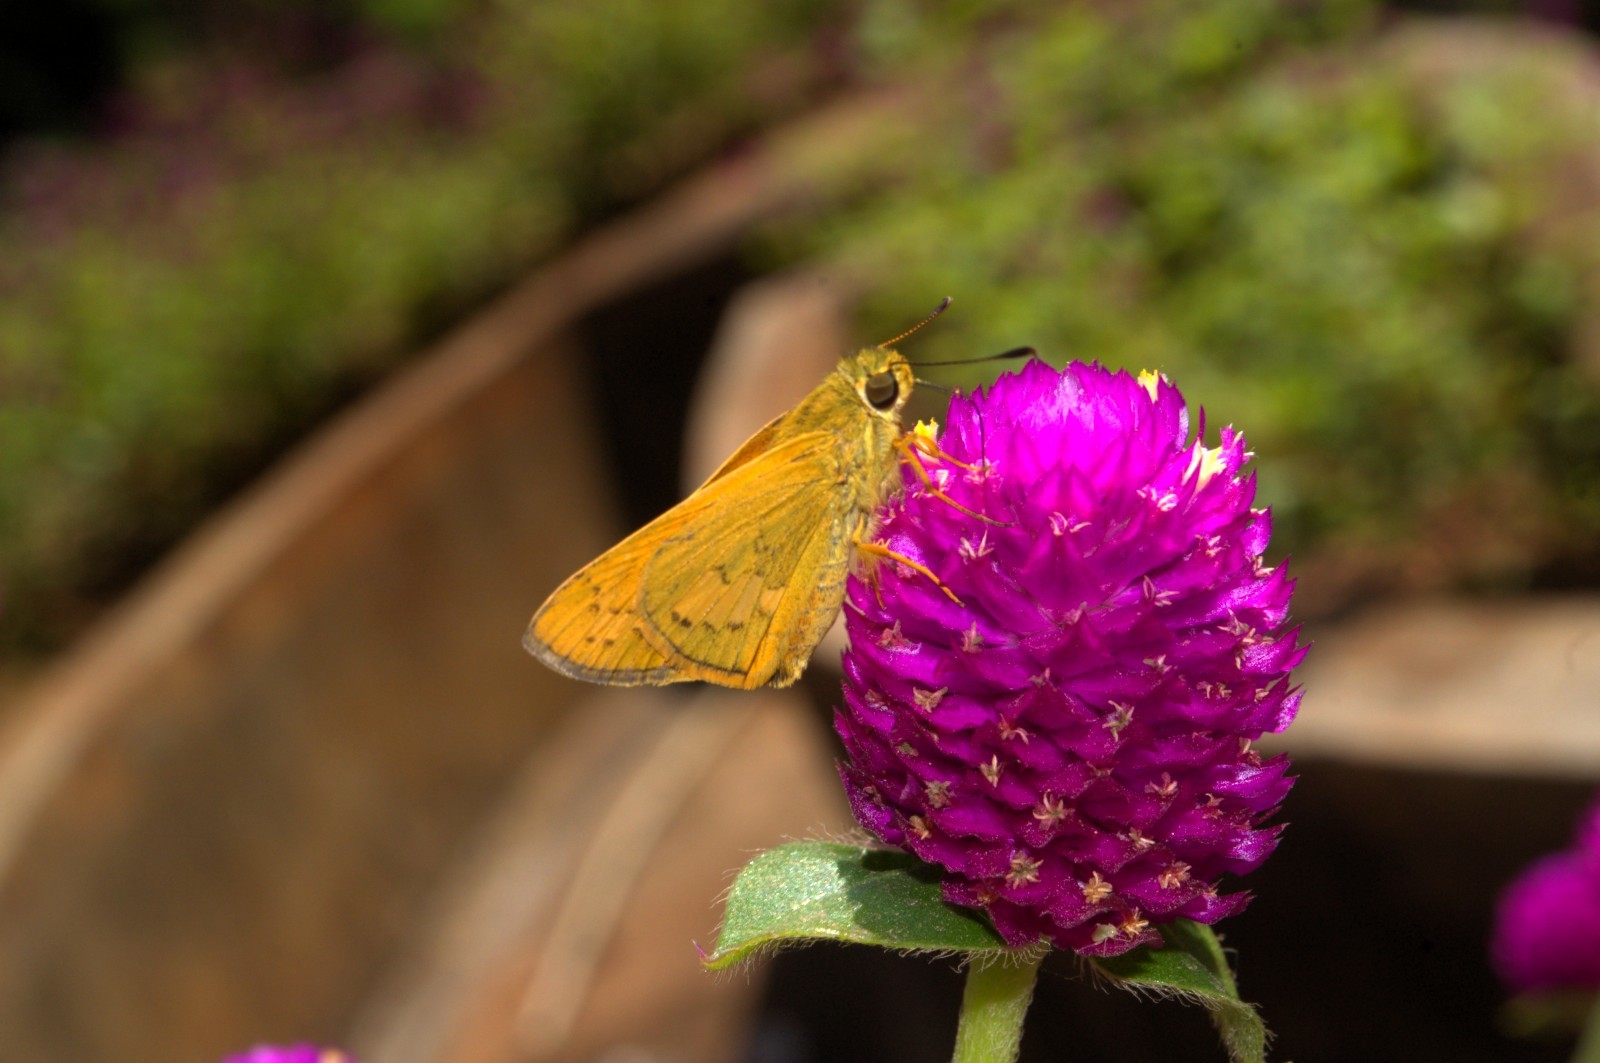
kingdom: Animalia
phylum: Arthropoda
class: Insecta
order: Lepidoptera
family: Hesperiidae
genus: Telicota
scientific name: Telicota bambusae
